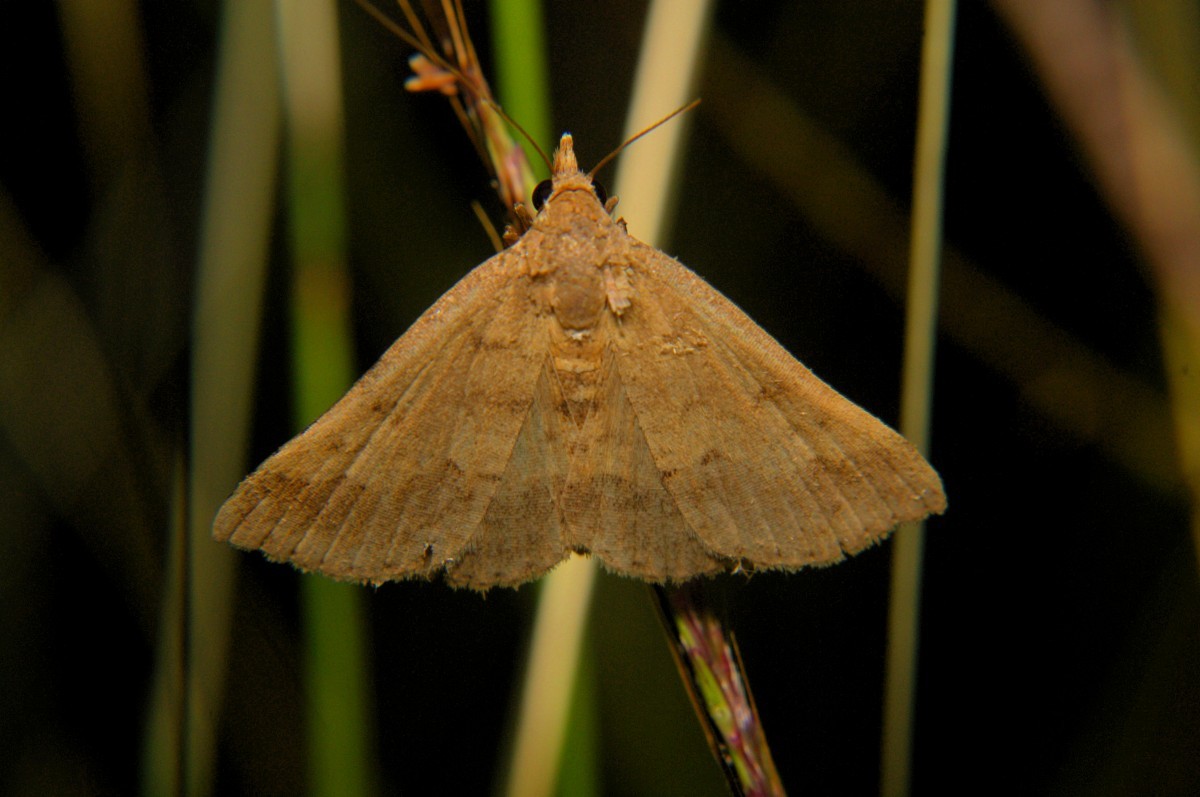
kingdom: Animalia
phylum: Arthropoda
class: Insecta
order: Lepidoptera
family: Erebidae
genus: Gesonia
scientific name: Gesonia obeditalis
